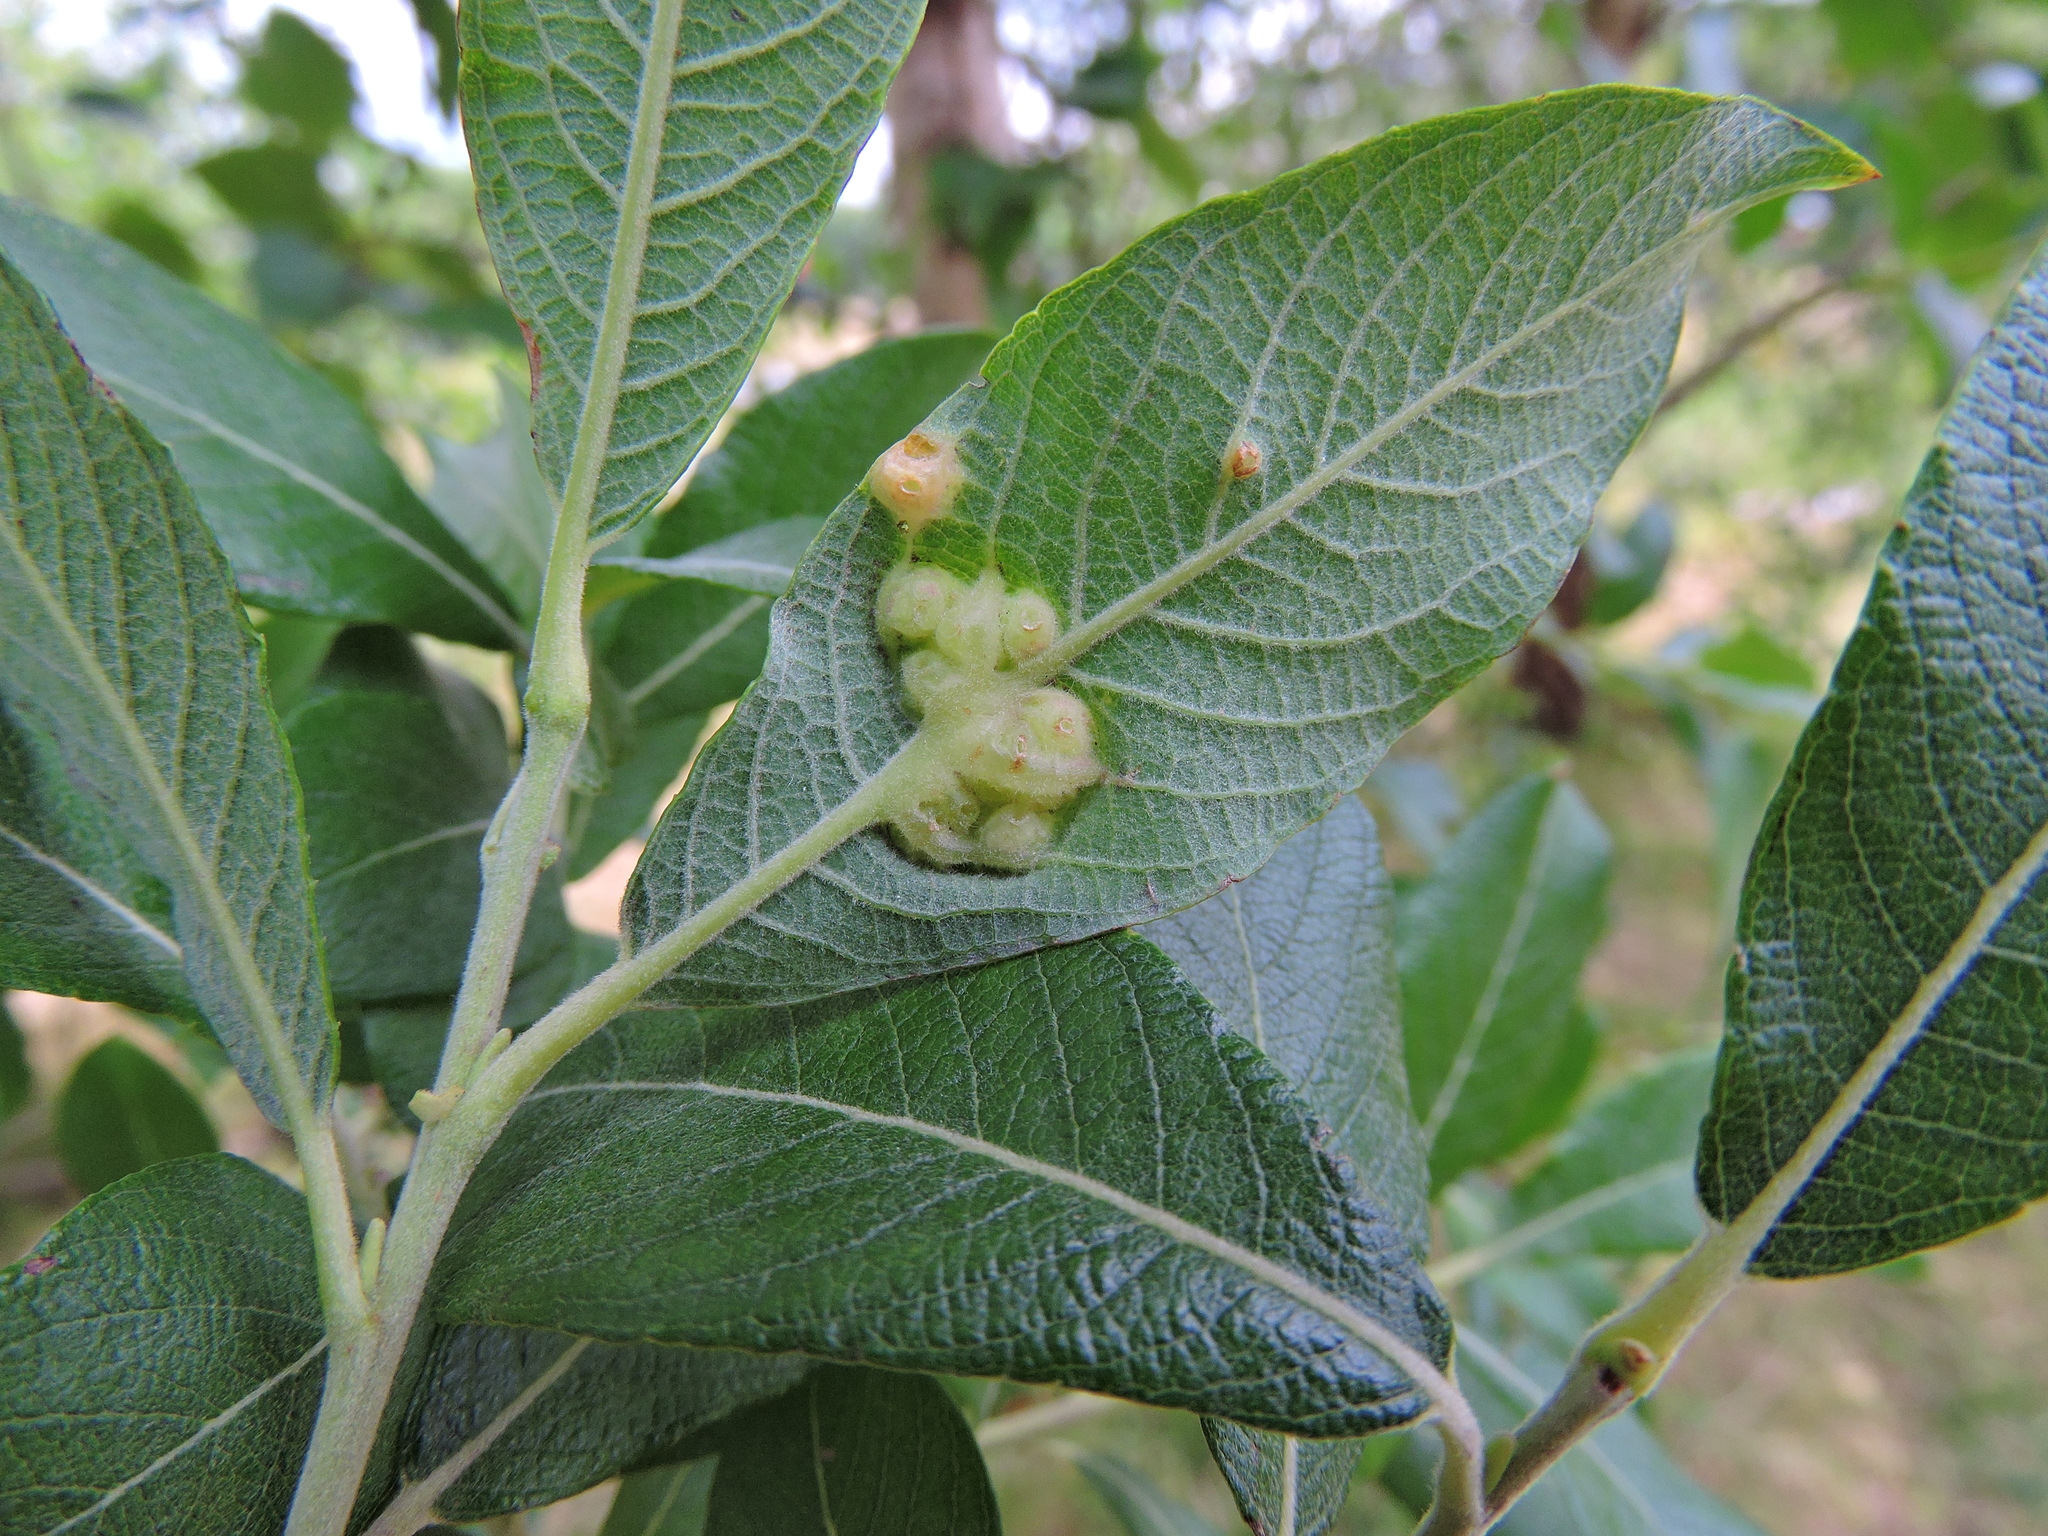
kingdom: Animalia
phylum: Arthropoda
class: Insecta
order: Diptera
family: Cecidomyiidae
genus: Iteomyia
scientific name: Iteomyia major
